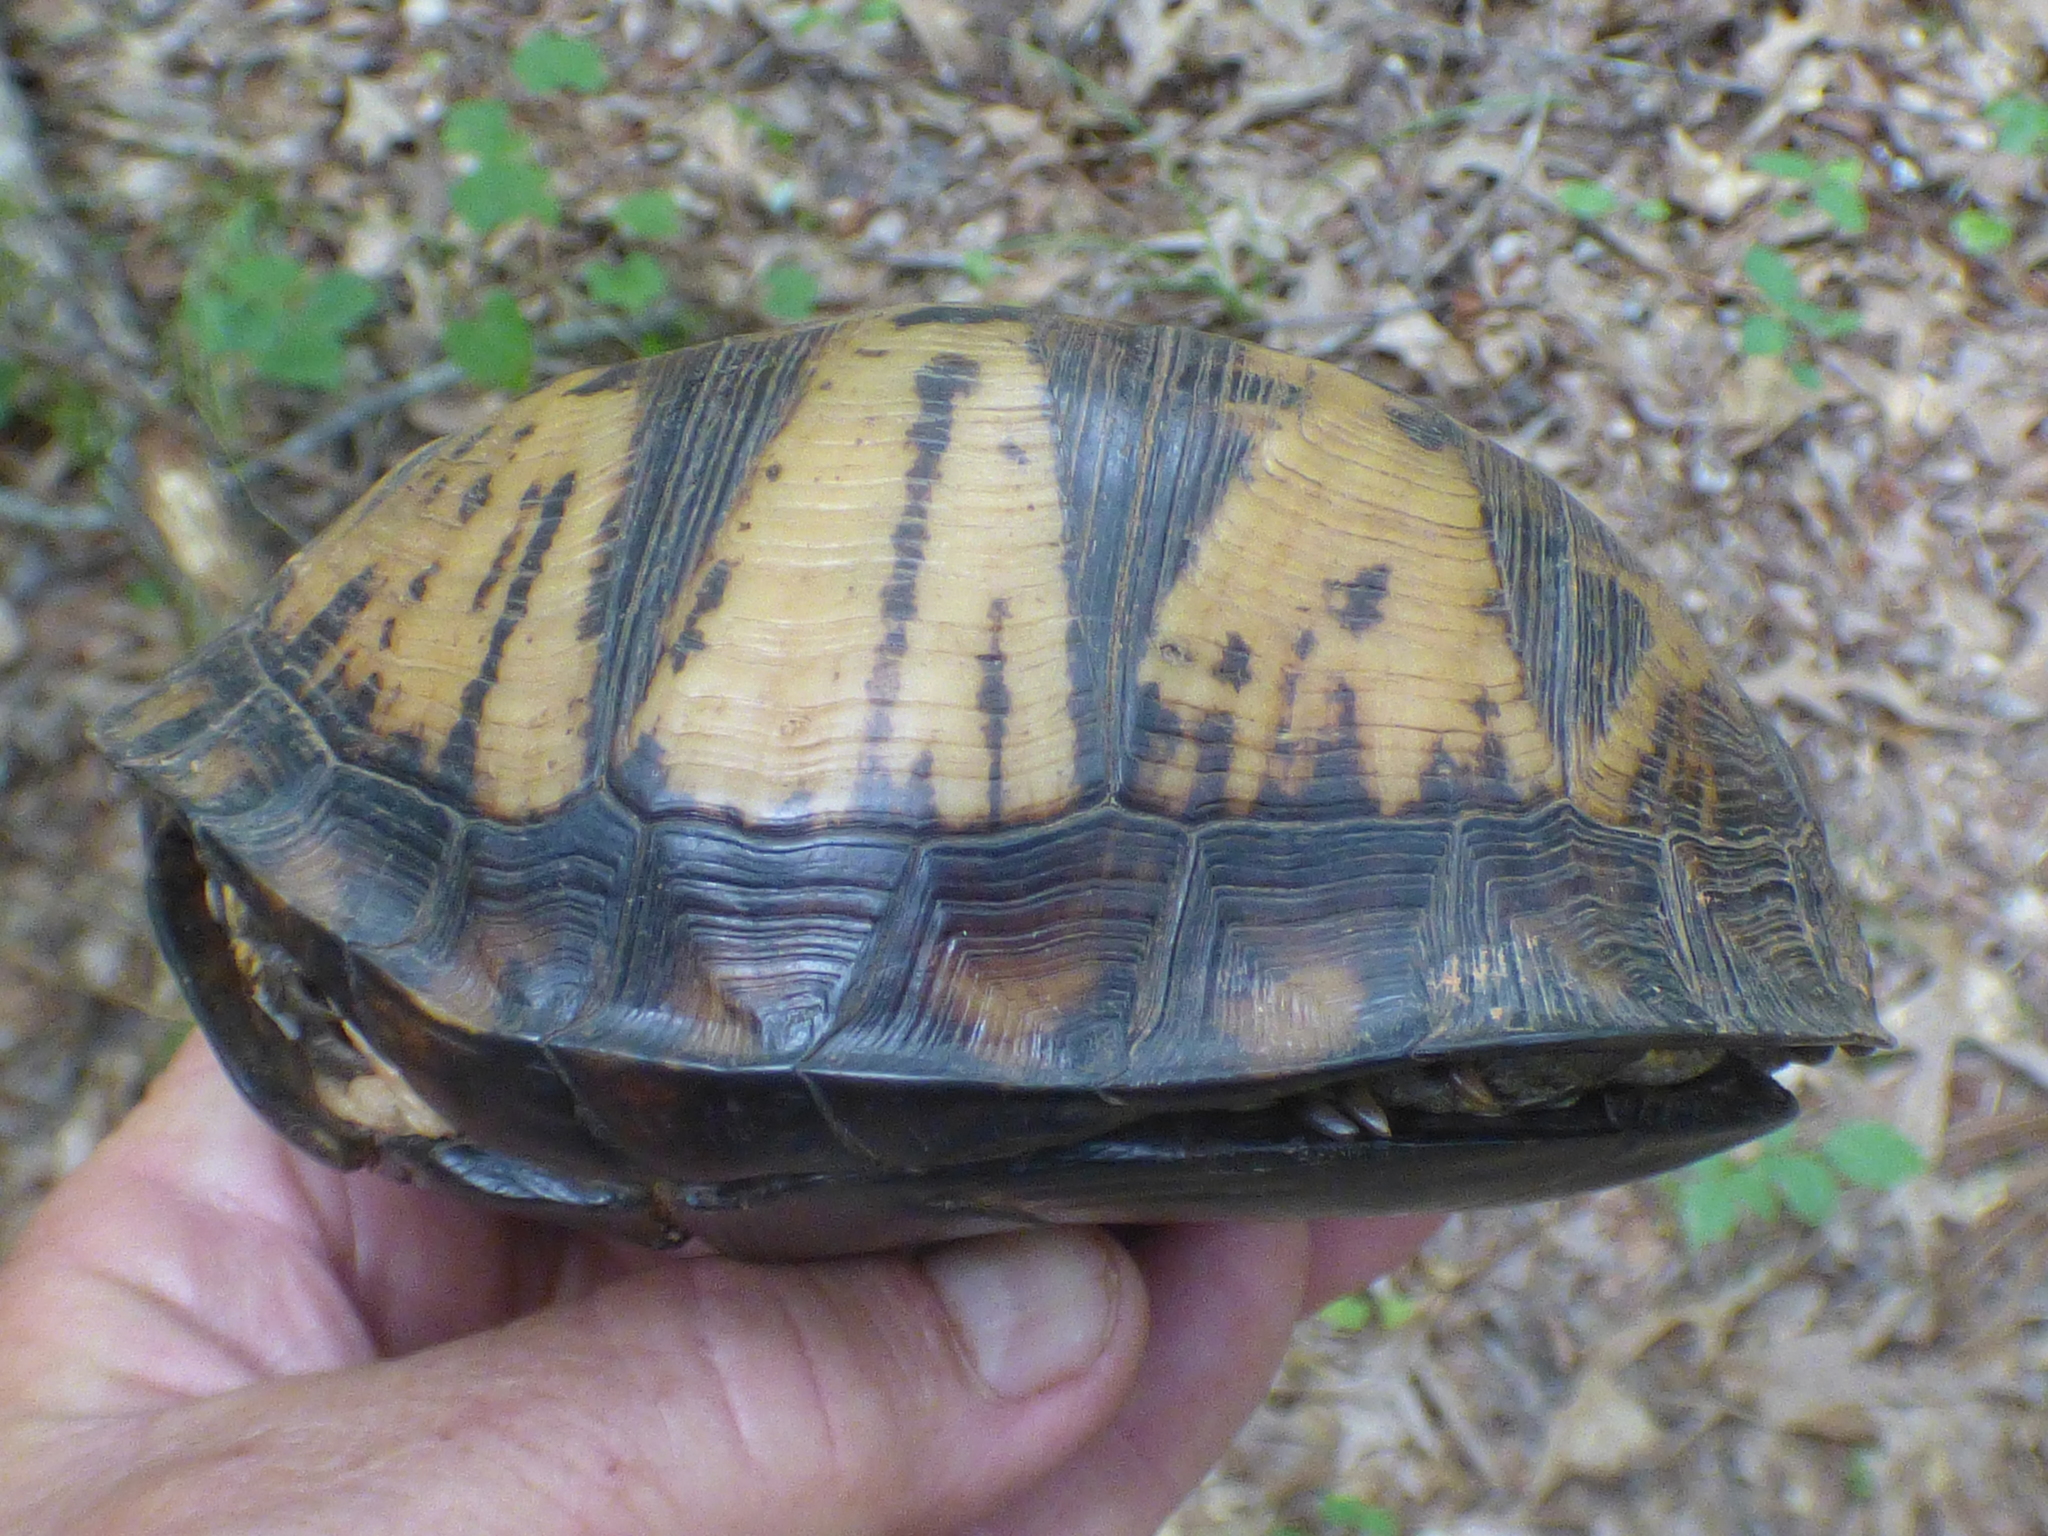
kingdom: Animalia
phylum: Chordata
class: Testudines
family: Emydidae
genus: Terrapene
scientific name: Terrapene carolina
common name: Common box turtle
